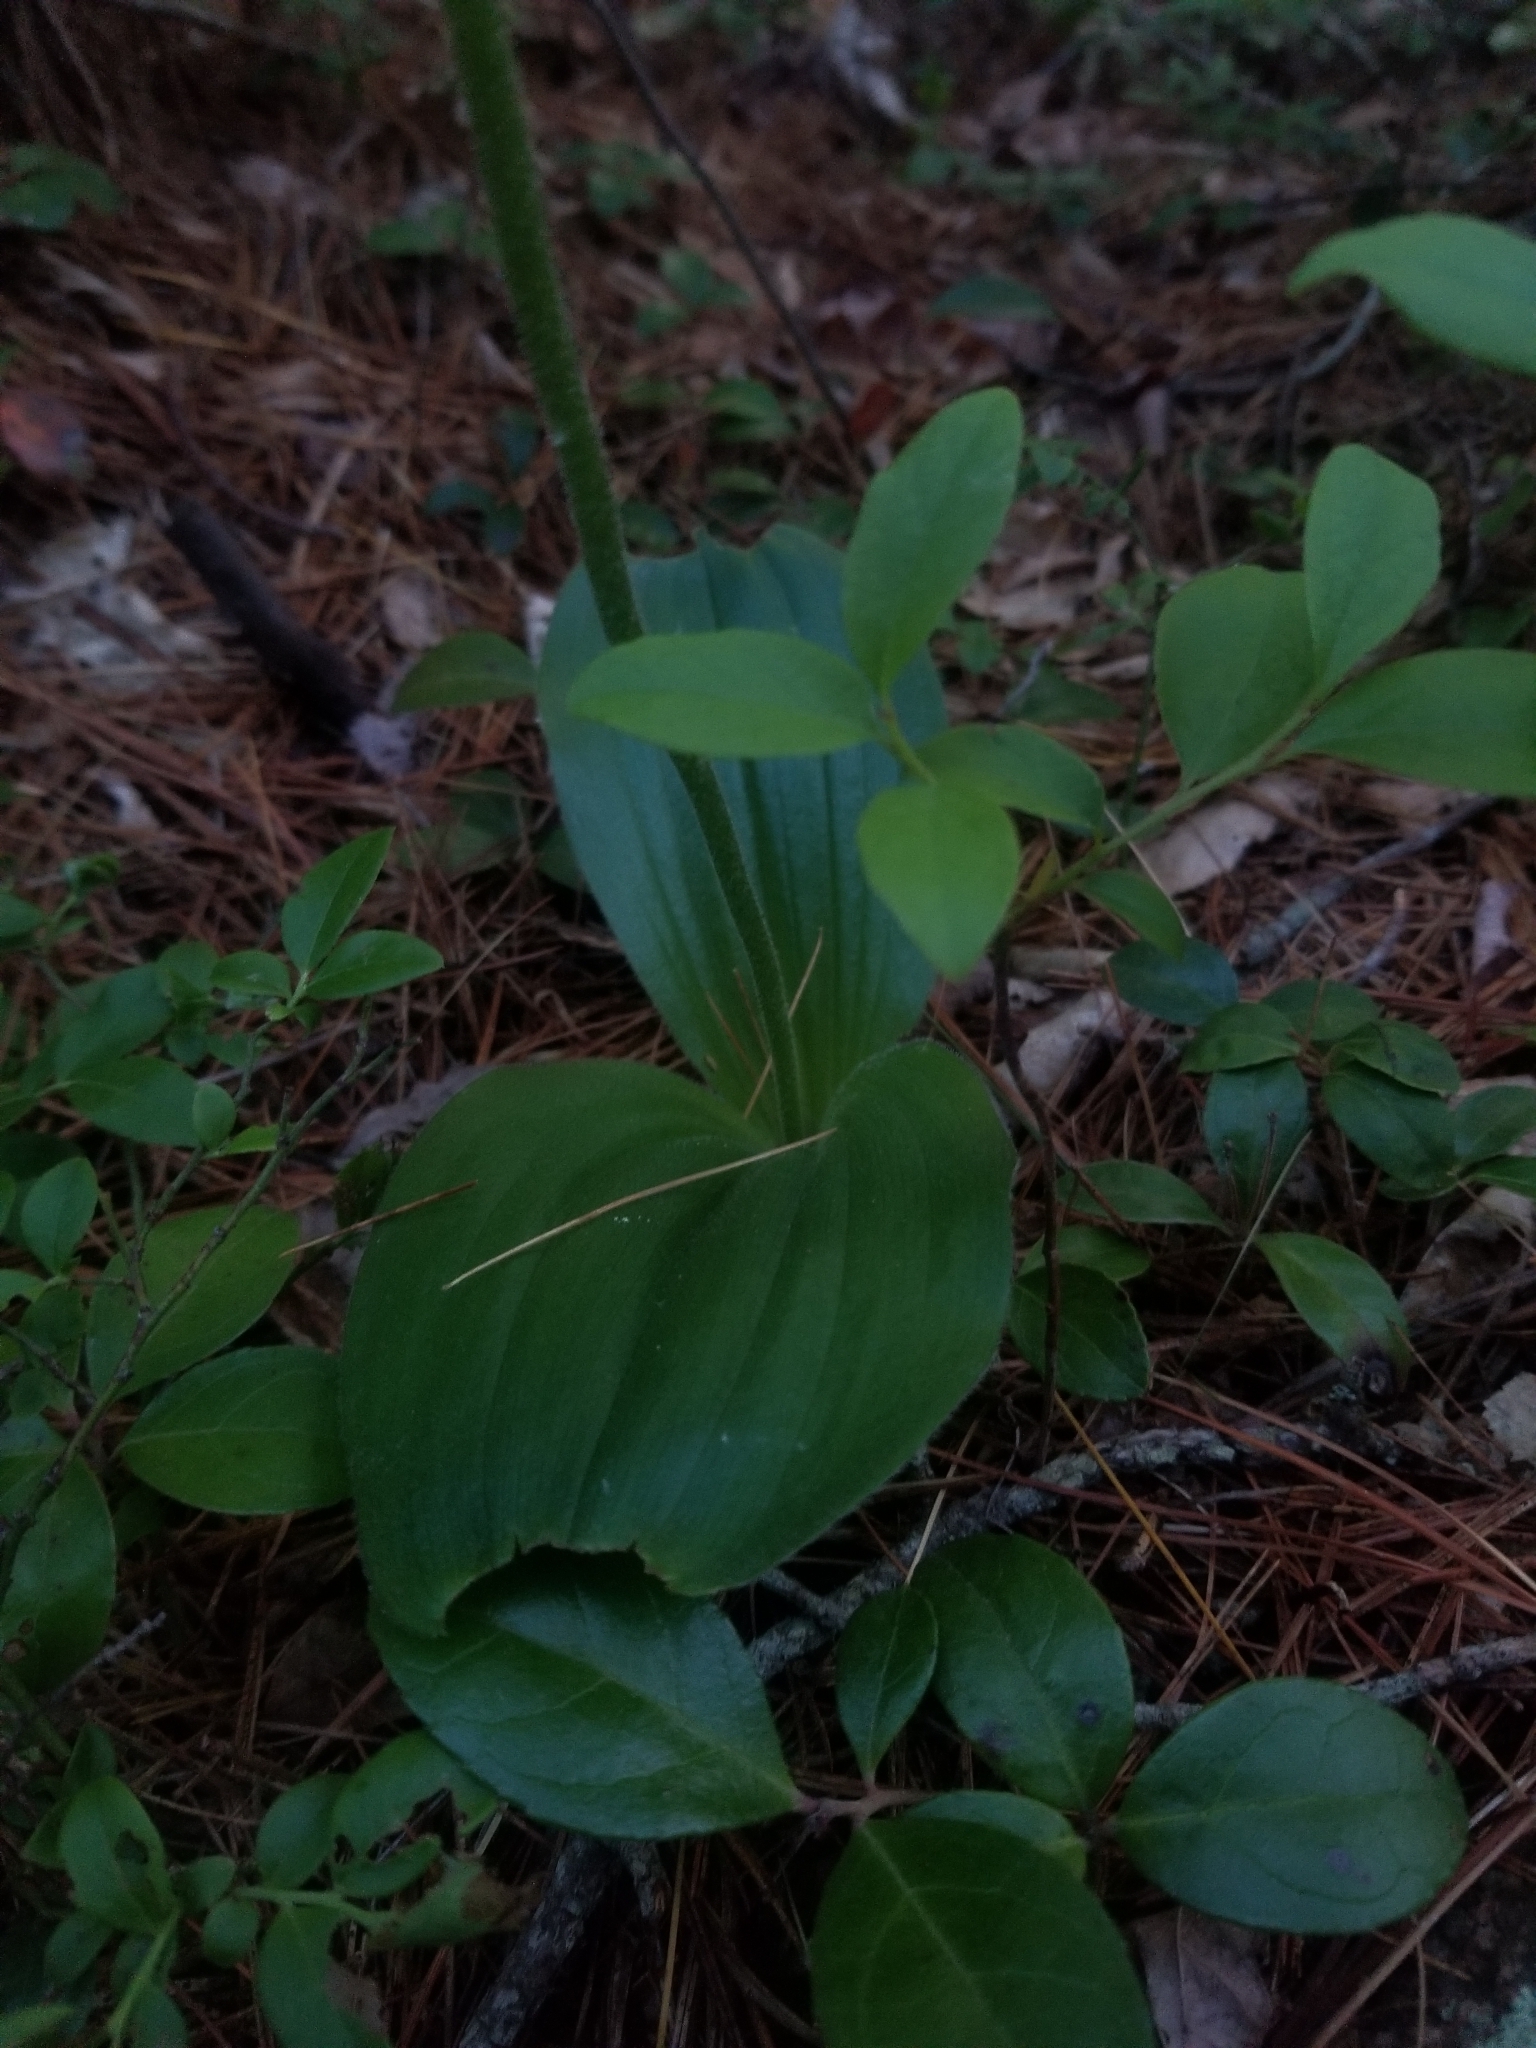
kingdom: Plantae
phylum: Tracheophyta
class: Liliopsida
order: Asparagales
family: Orchidaceae
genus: Cypripedium
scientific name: Cypripedium acaule
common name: Pink lady's-slipper
